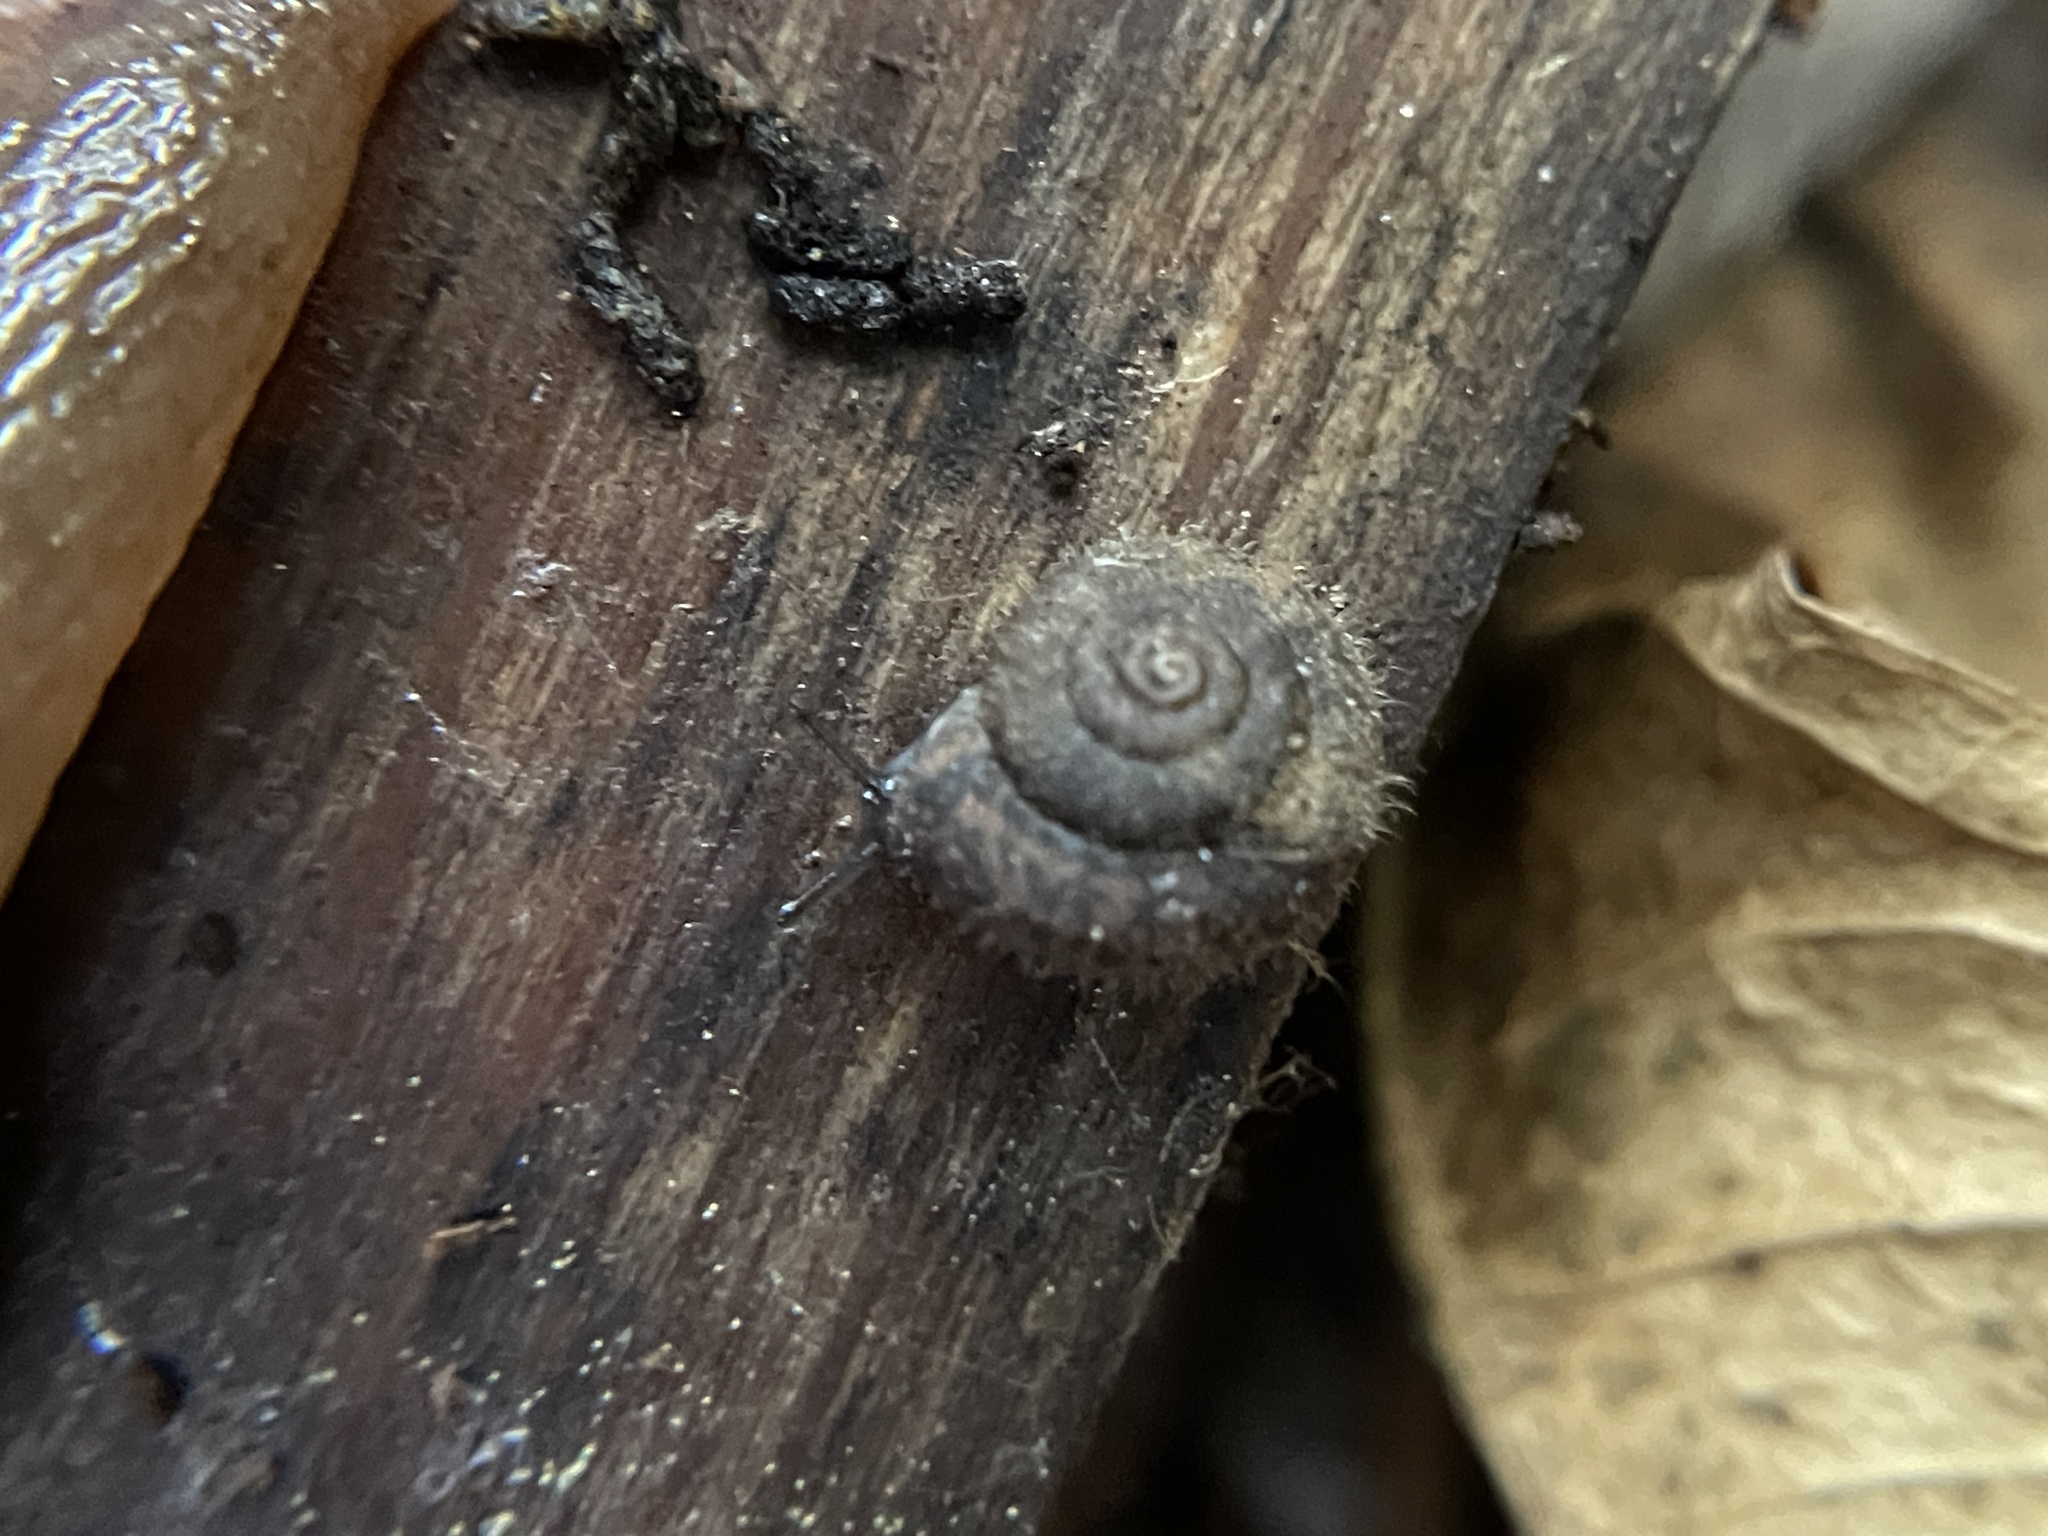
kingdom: Animalia
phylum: Mollusca
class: Gastropoda
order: Stylommatophora
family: Geomitridae
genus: Xerotricha
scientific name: Xerotricha conspurcata
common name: Snail
